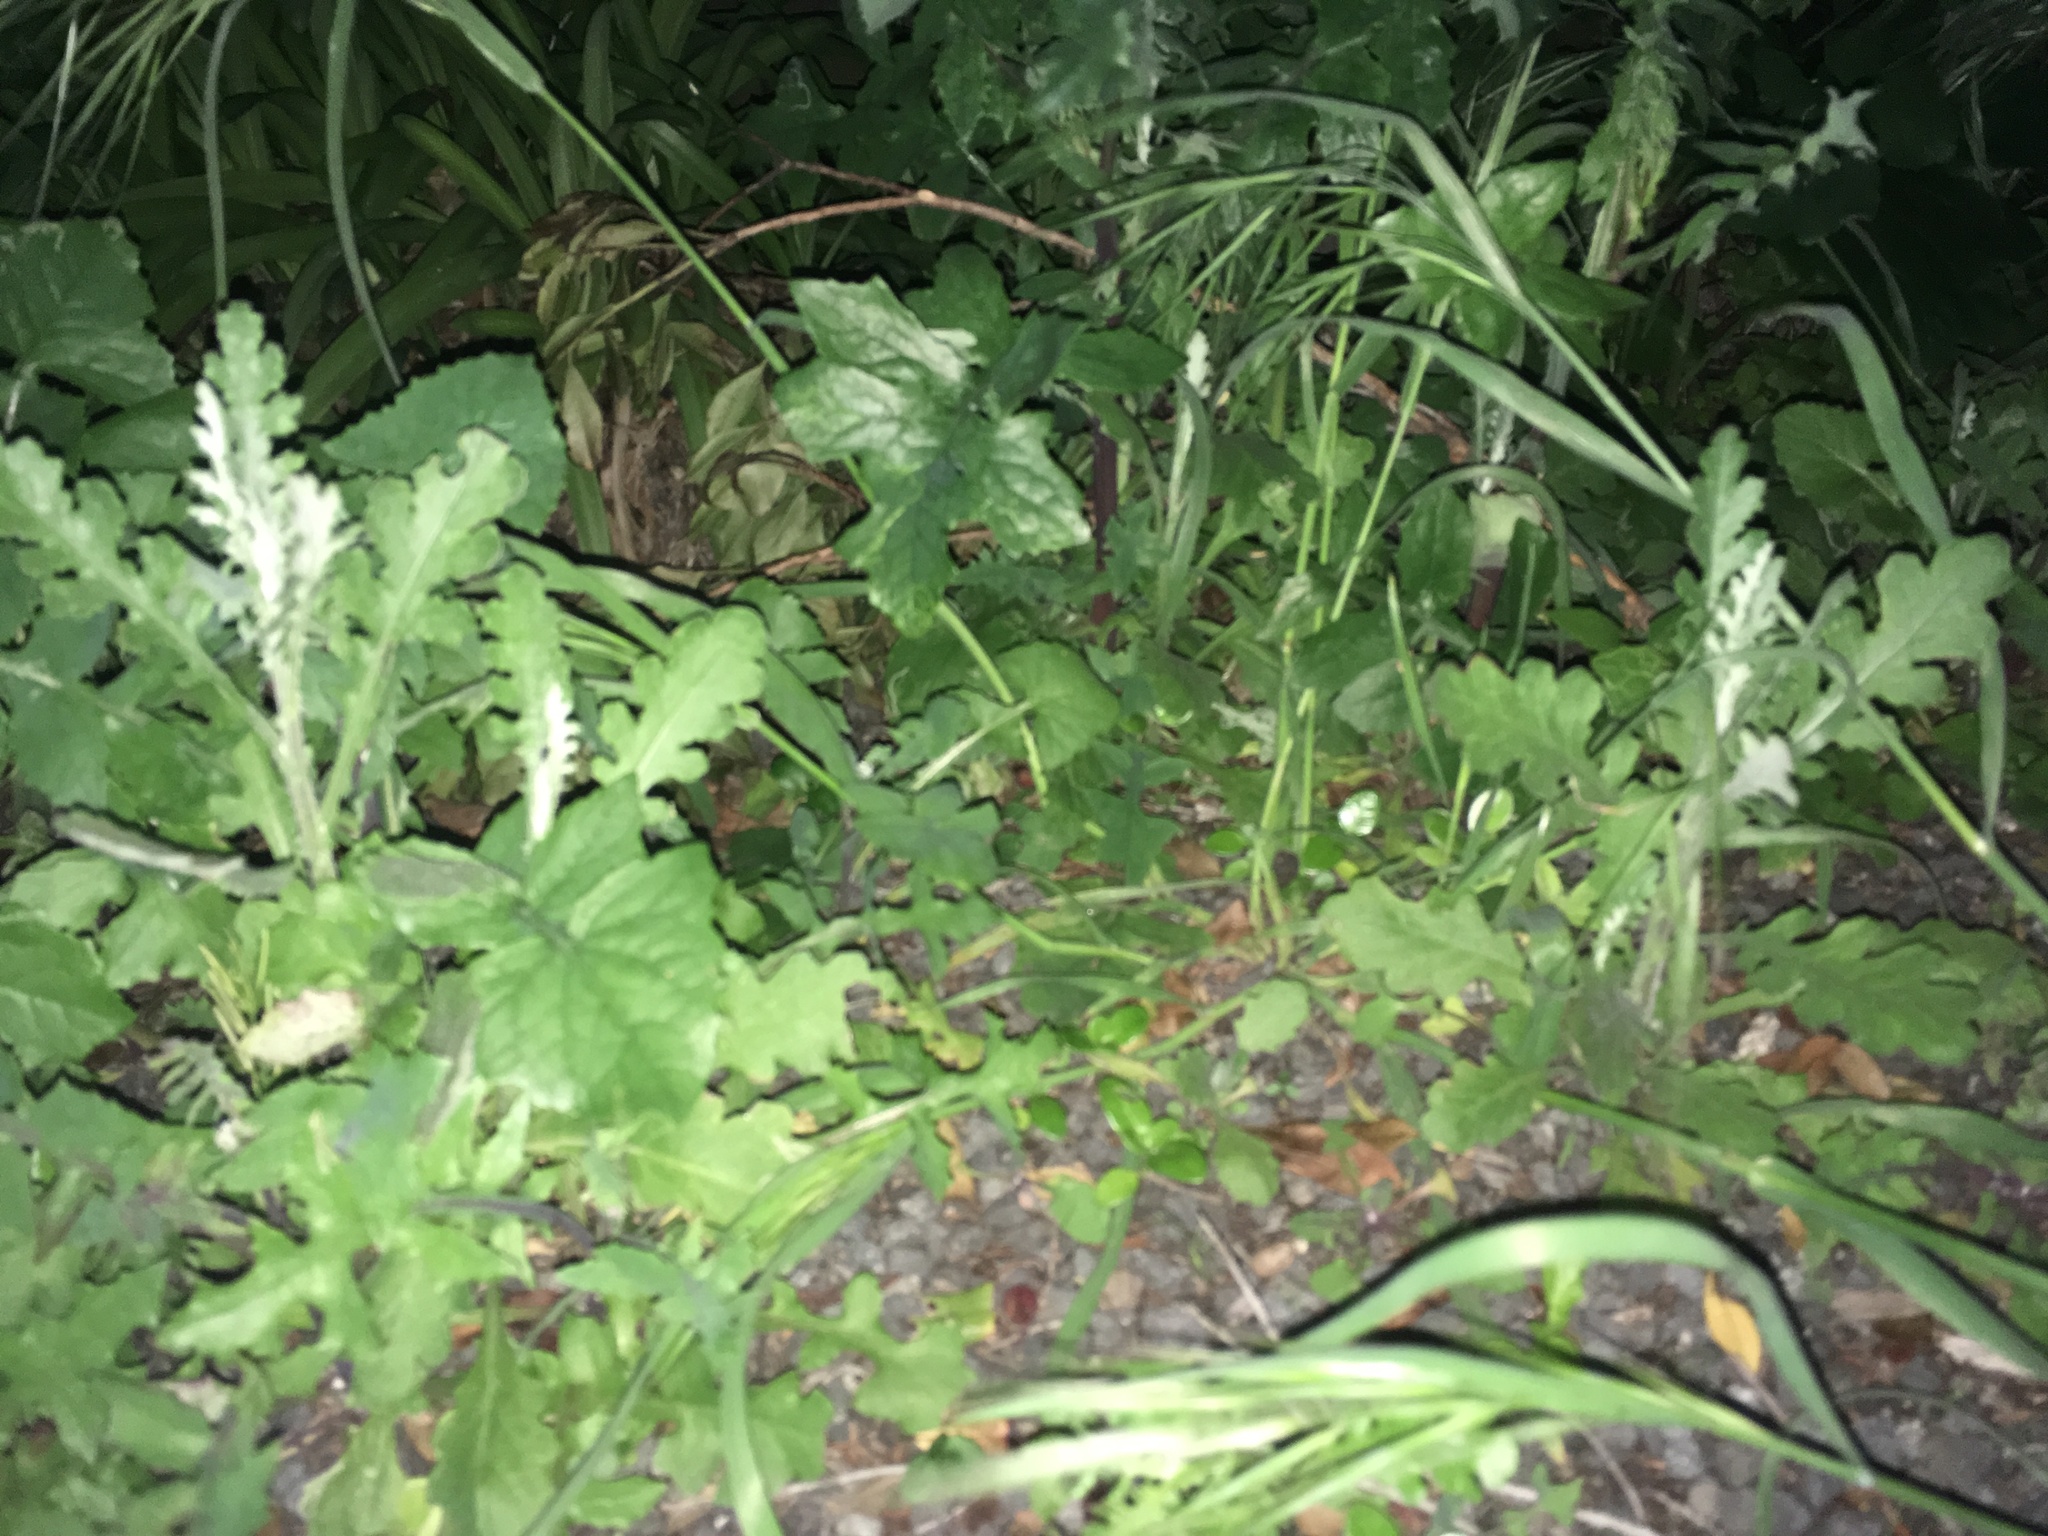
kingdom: Plantae
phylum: Tracheophyta
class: Magnoliopsida
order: Asterales
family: Asteraceae
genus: Senecio
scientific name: Senecio glomeratus
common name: Cutleaf burnweed
